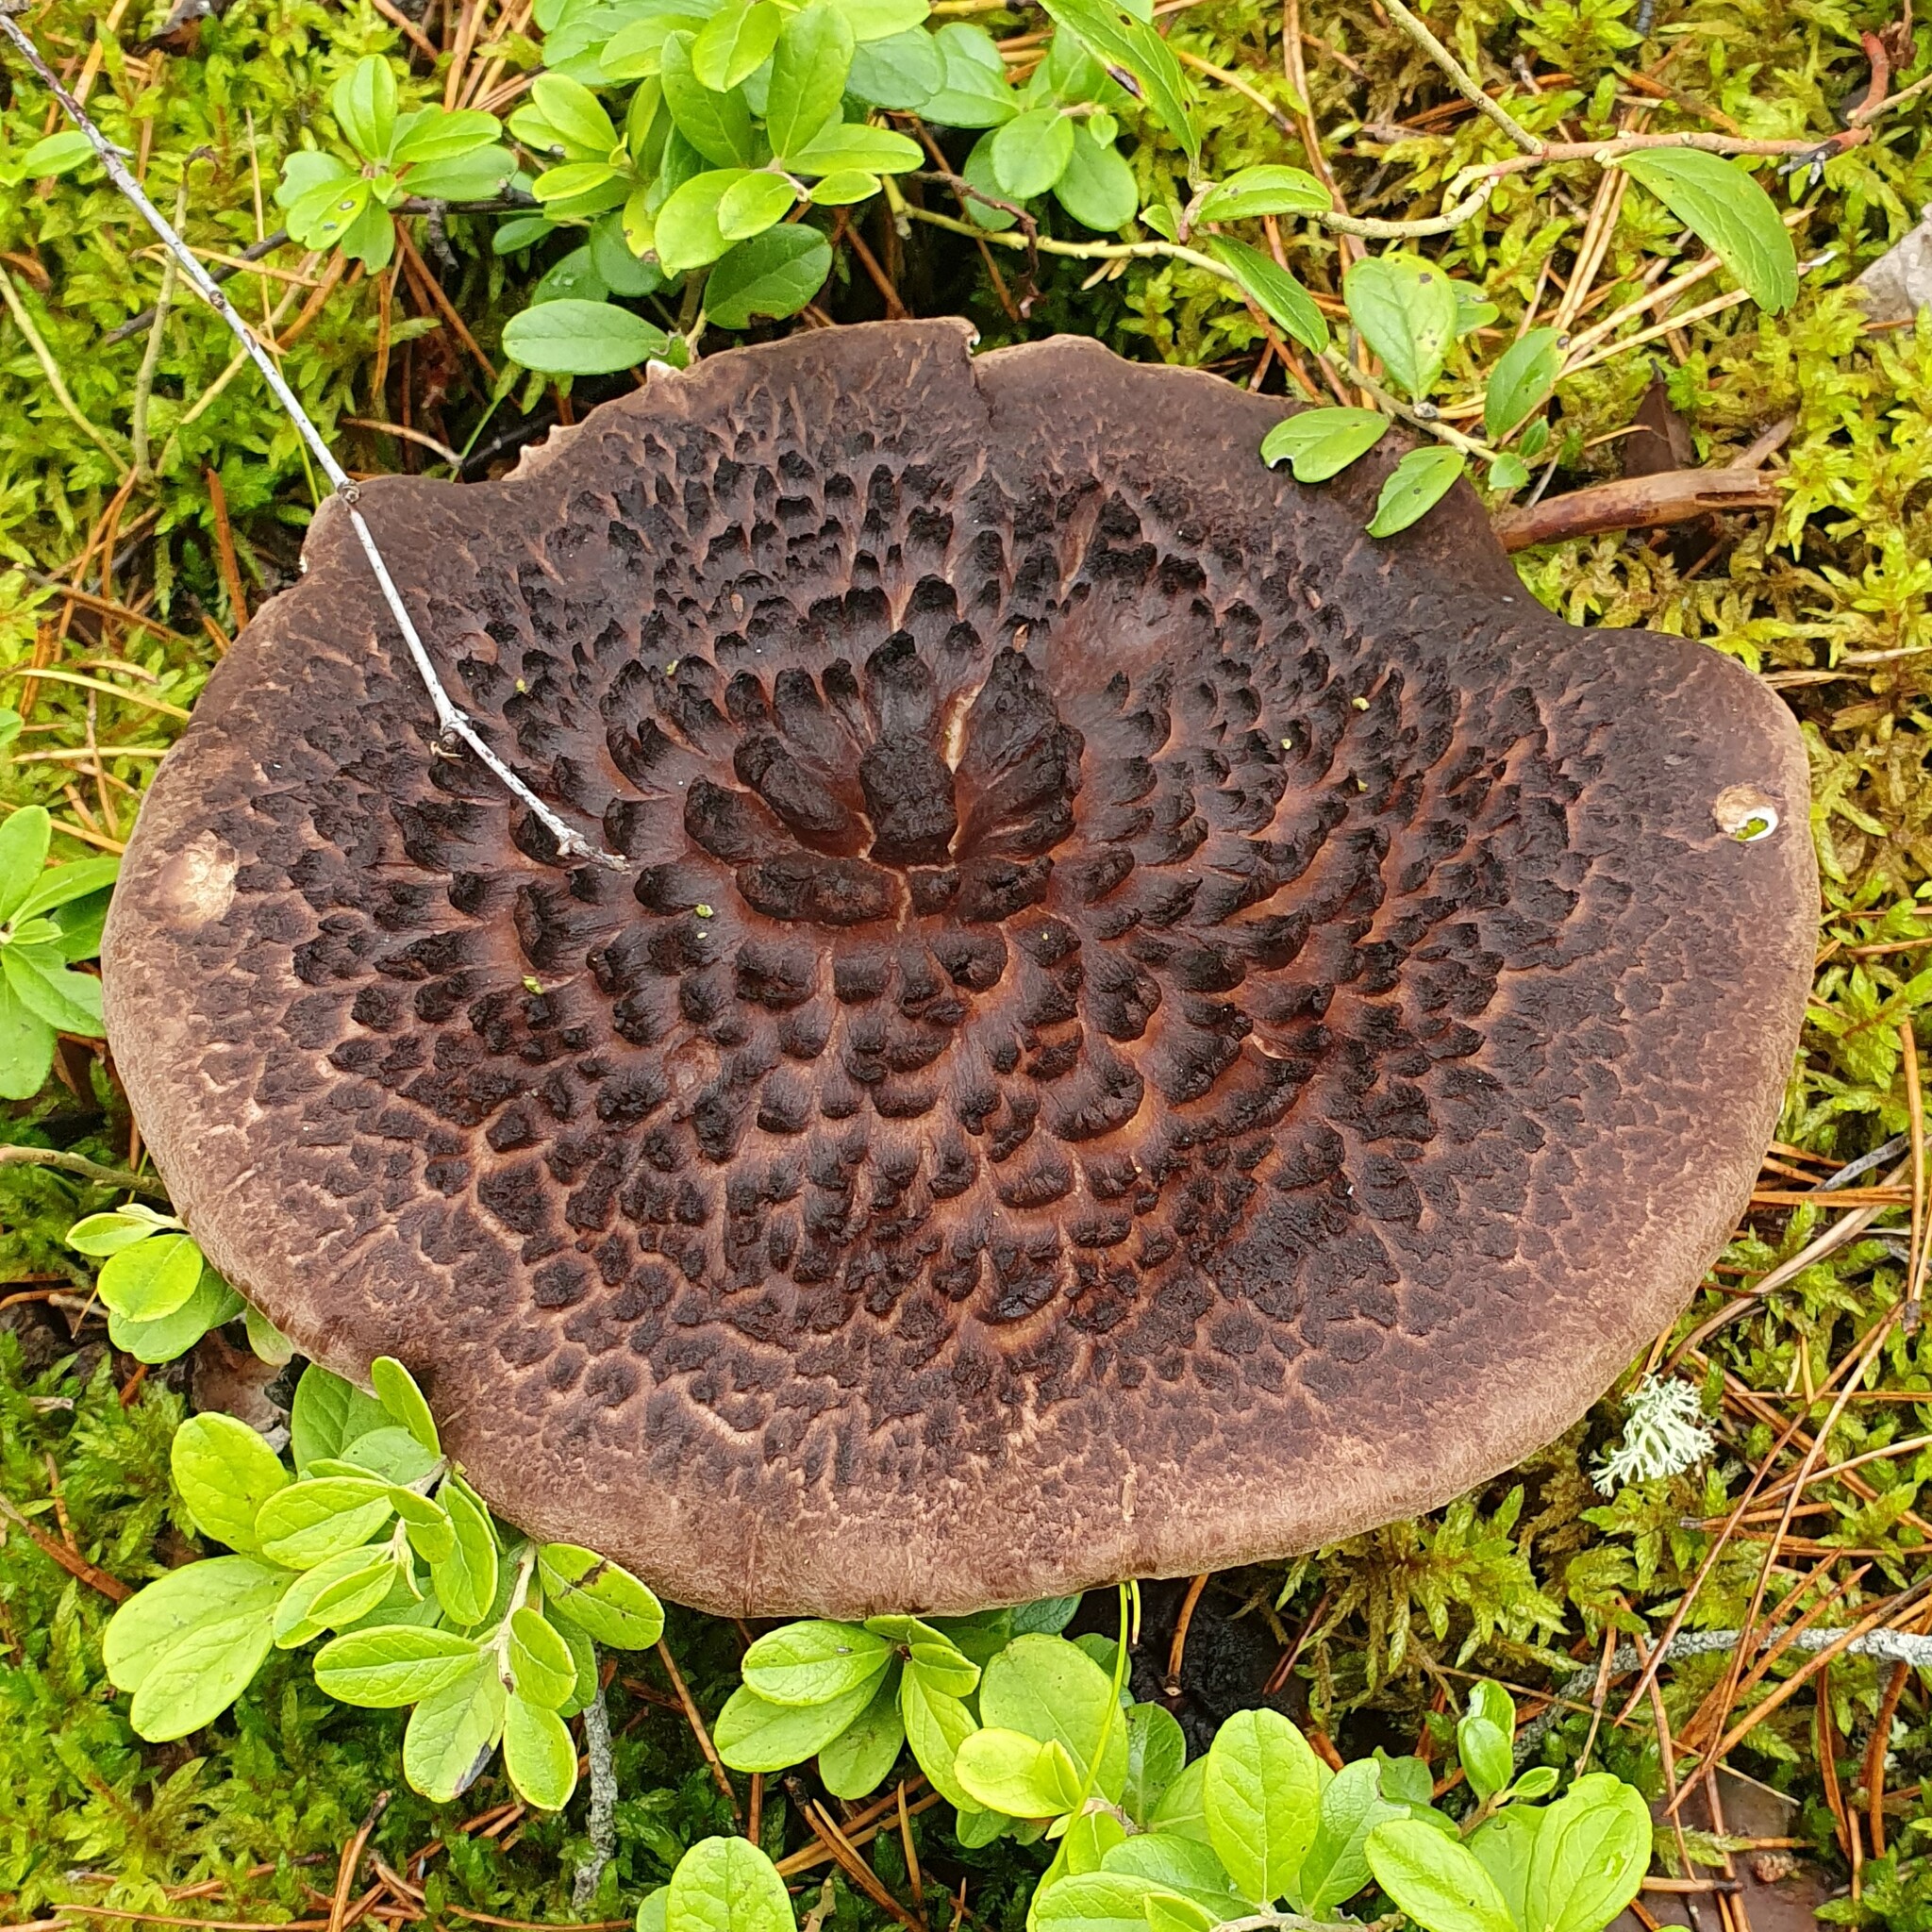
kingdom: Fungi
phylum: Basidiomycota
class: Agaricomycetes
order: Thelephorales
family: Bankeraceae
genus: Sarcodon
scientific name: Sarcodon squamosus
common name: Scaly tooth
